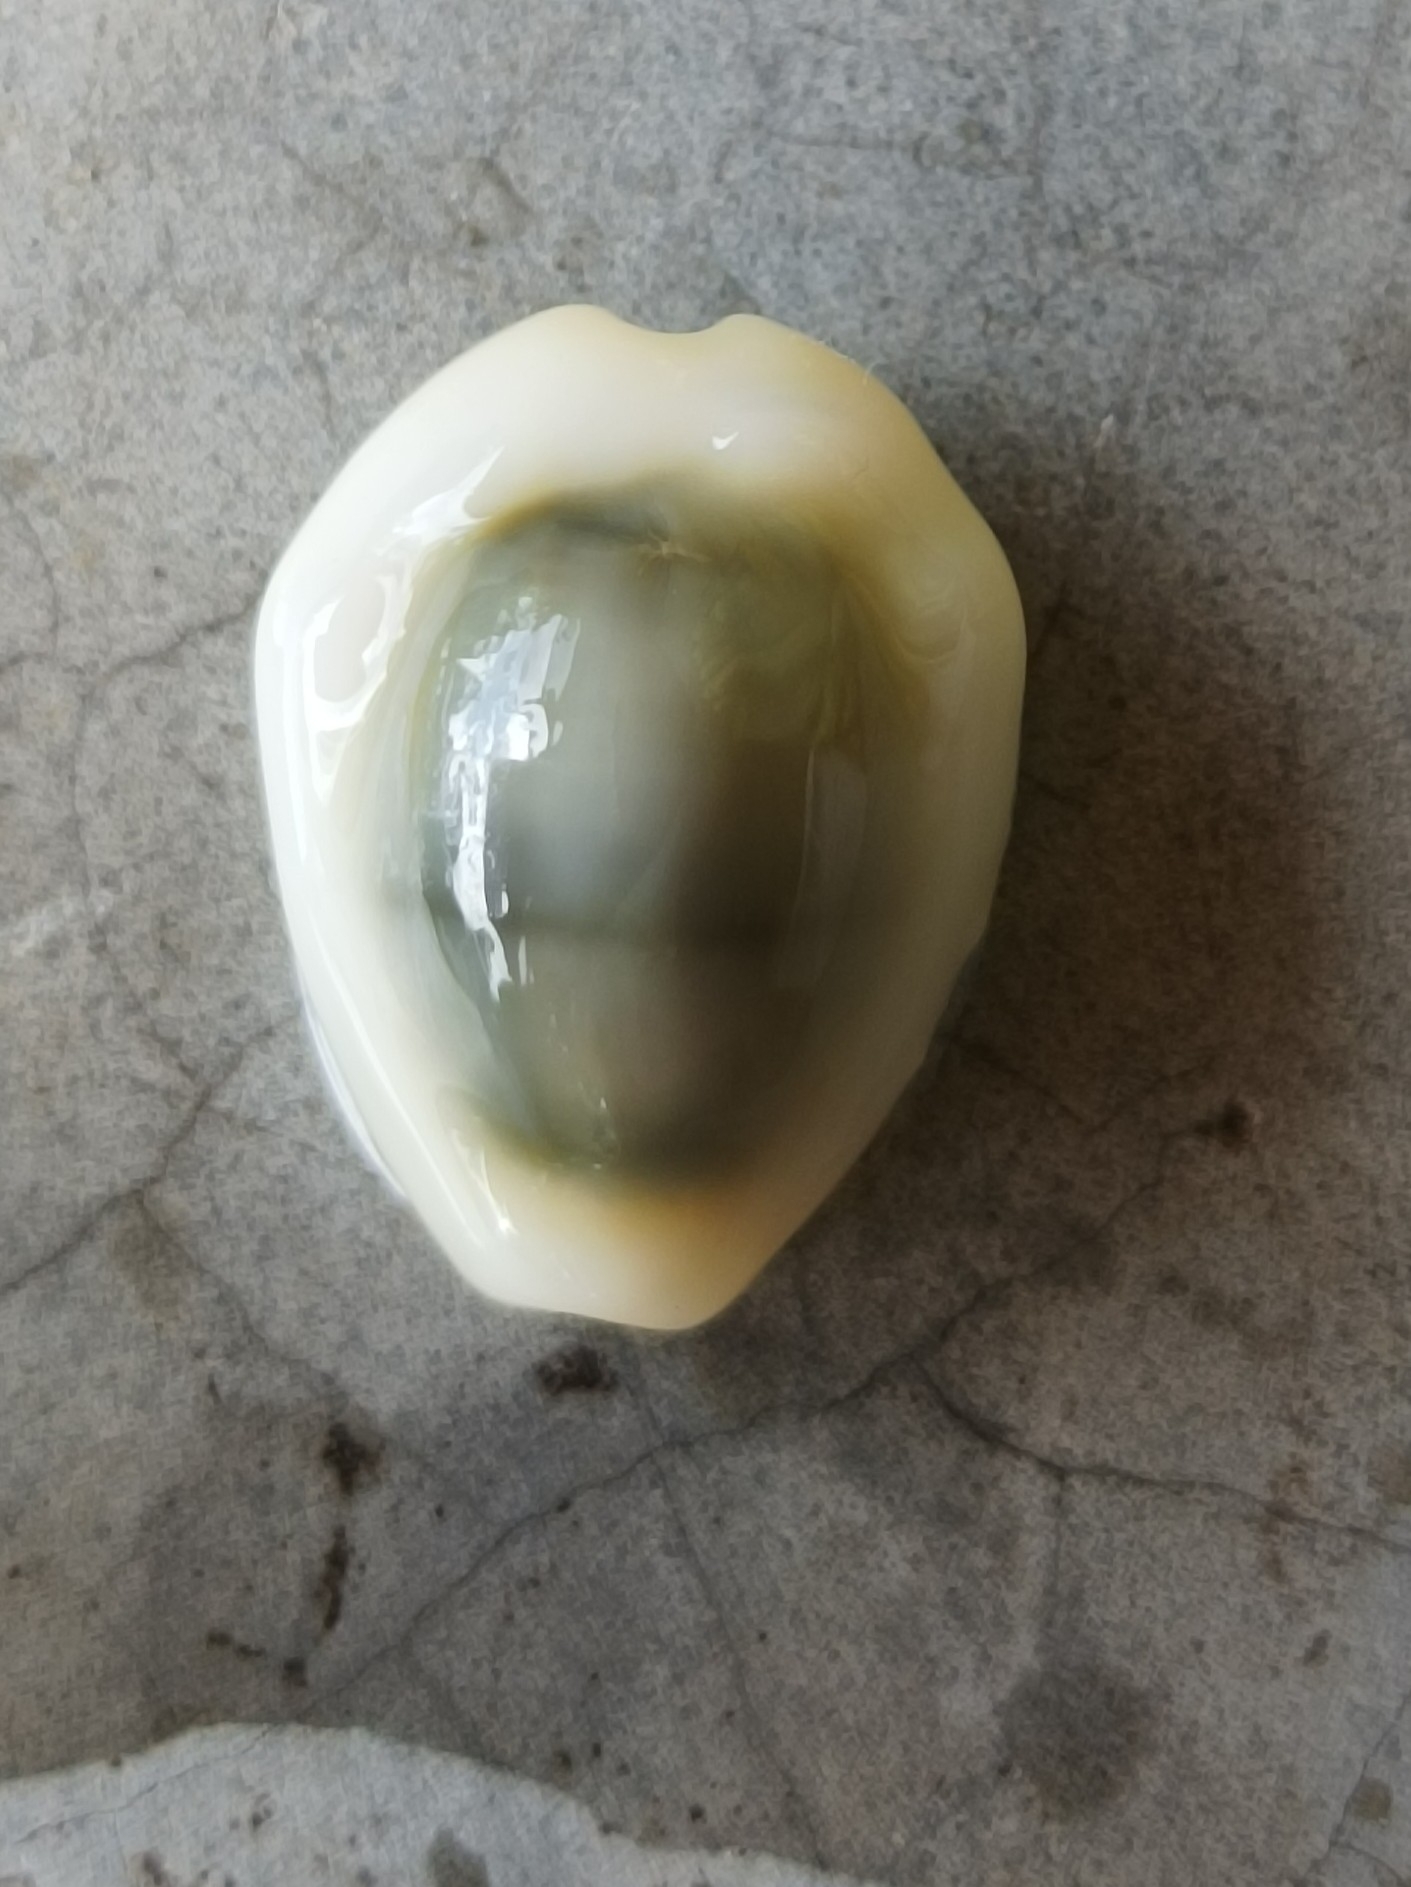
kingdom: Animalia
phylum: Mollusca
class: Gastropoda
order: Littorinimorpha
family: Cypraeidae
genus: Monetaria
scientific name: Monetaria moneta
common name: Money cowrie
